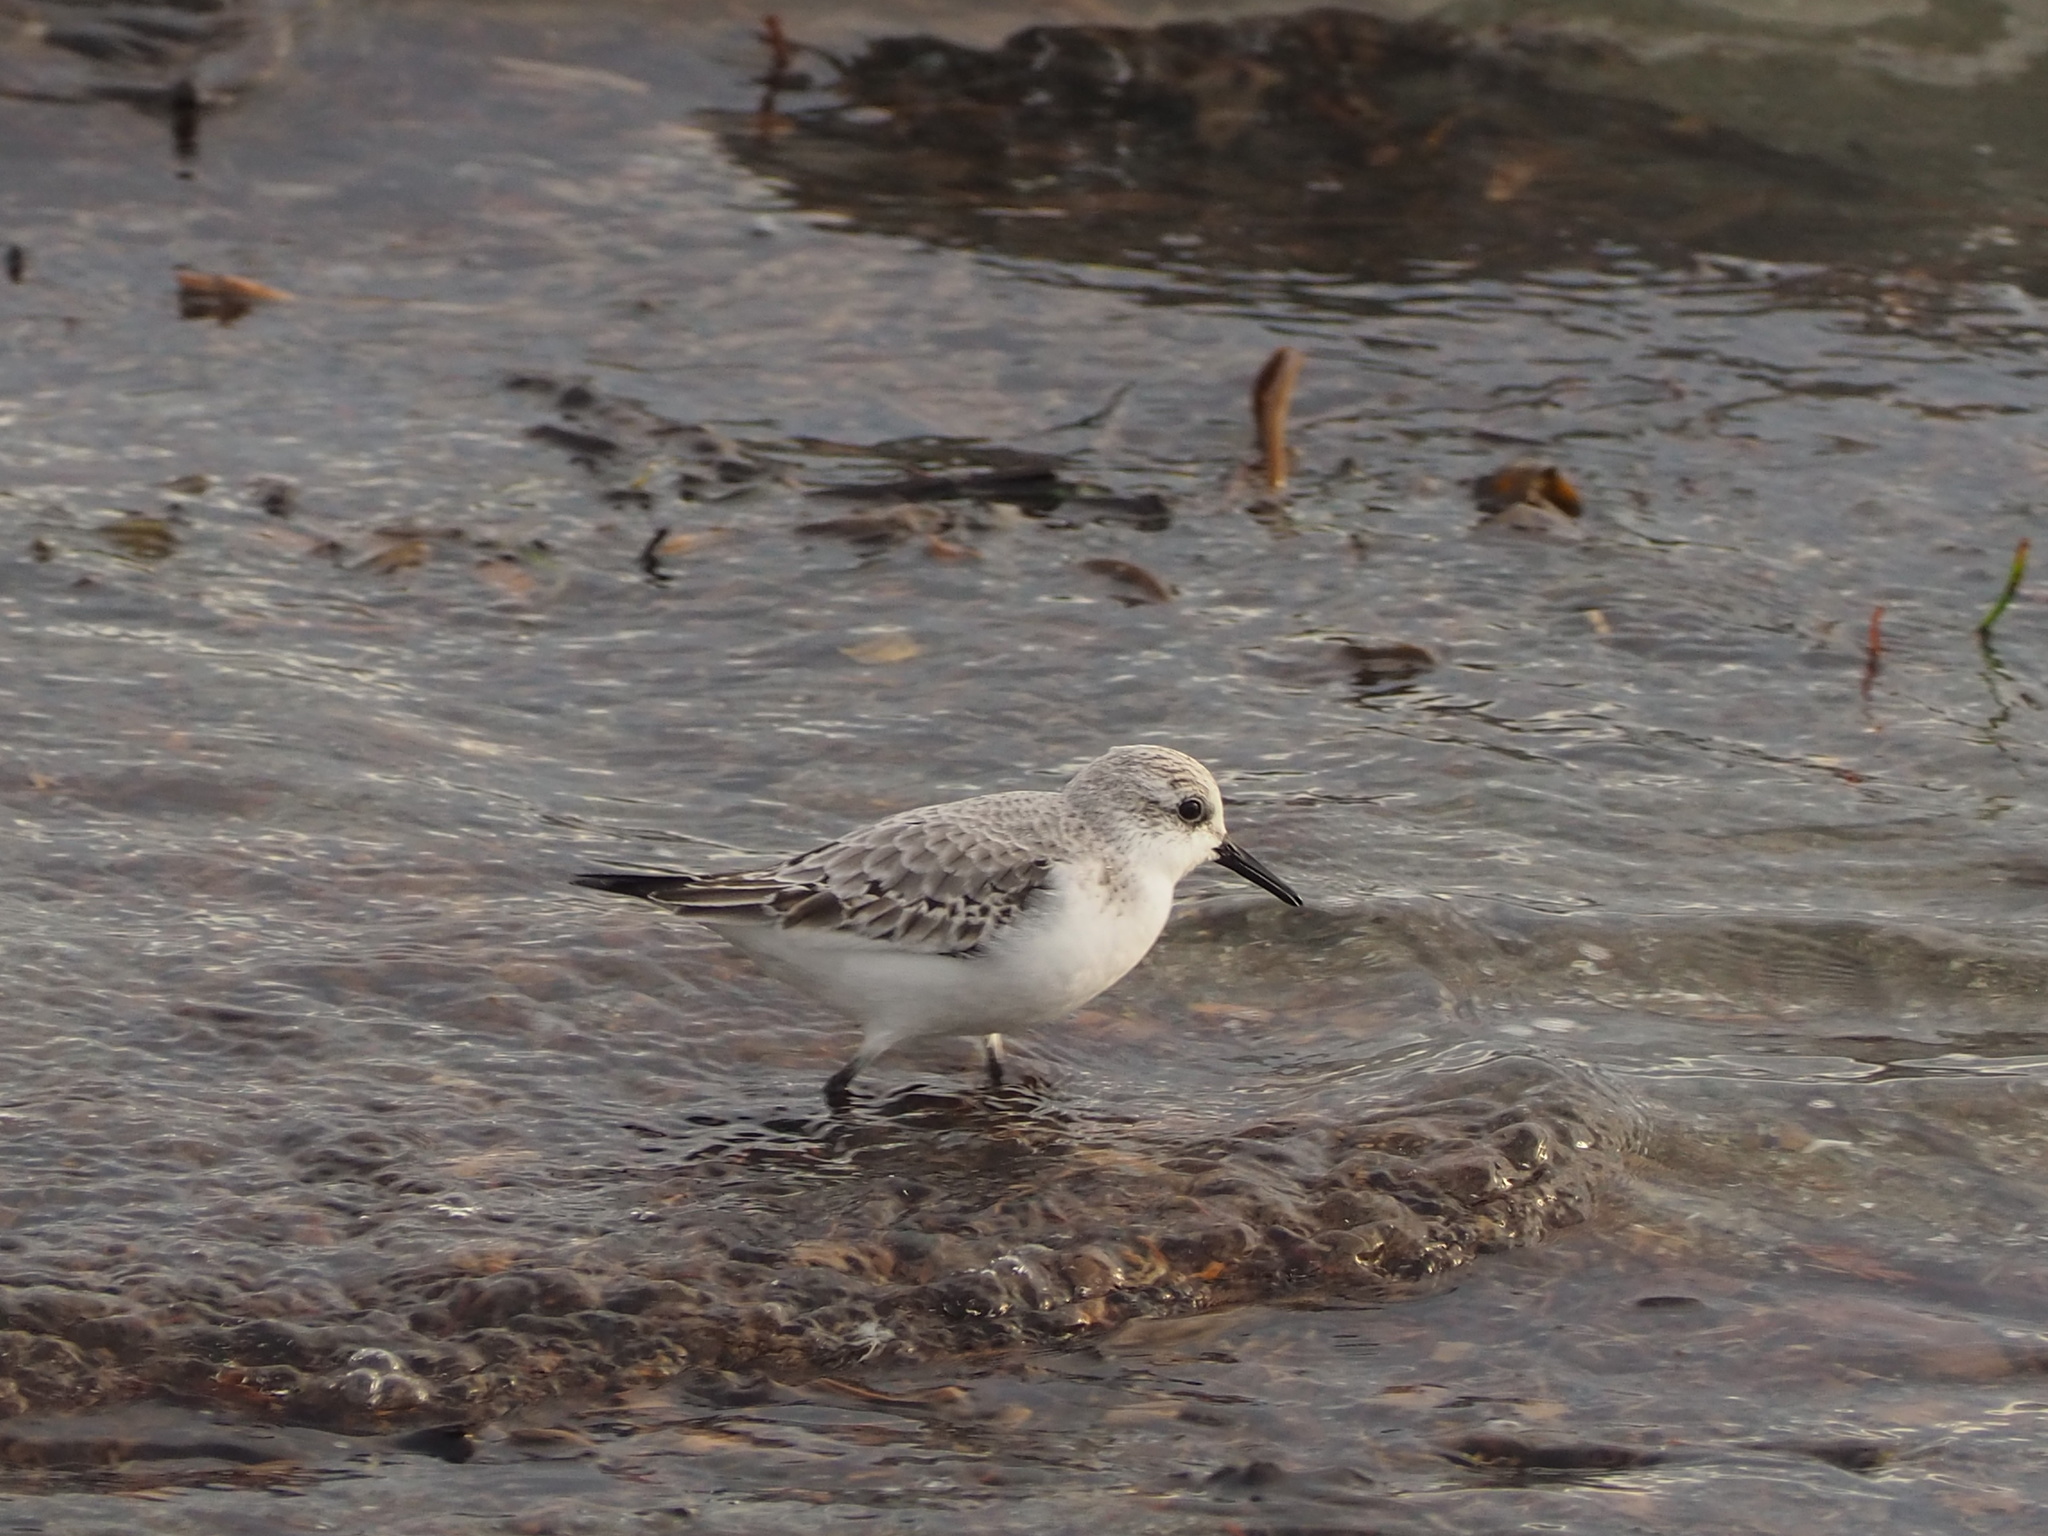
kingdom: Animalia
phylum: Chordata
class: Aves
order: Charadriiformes
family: Scolopacidae
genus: Calidris
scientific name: Calidris alba
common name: Sanderling
